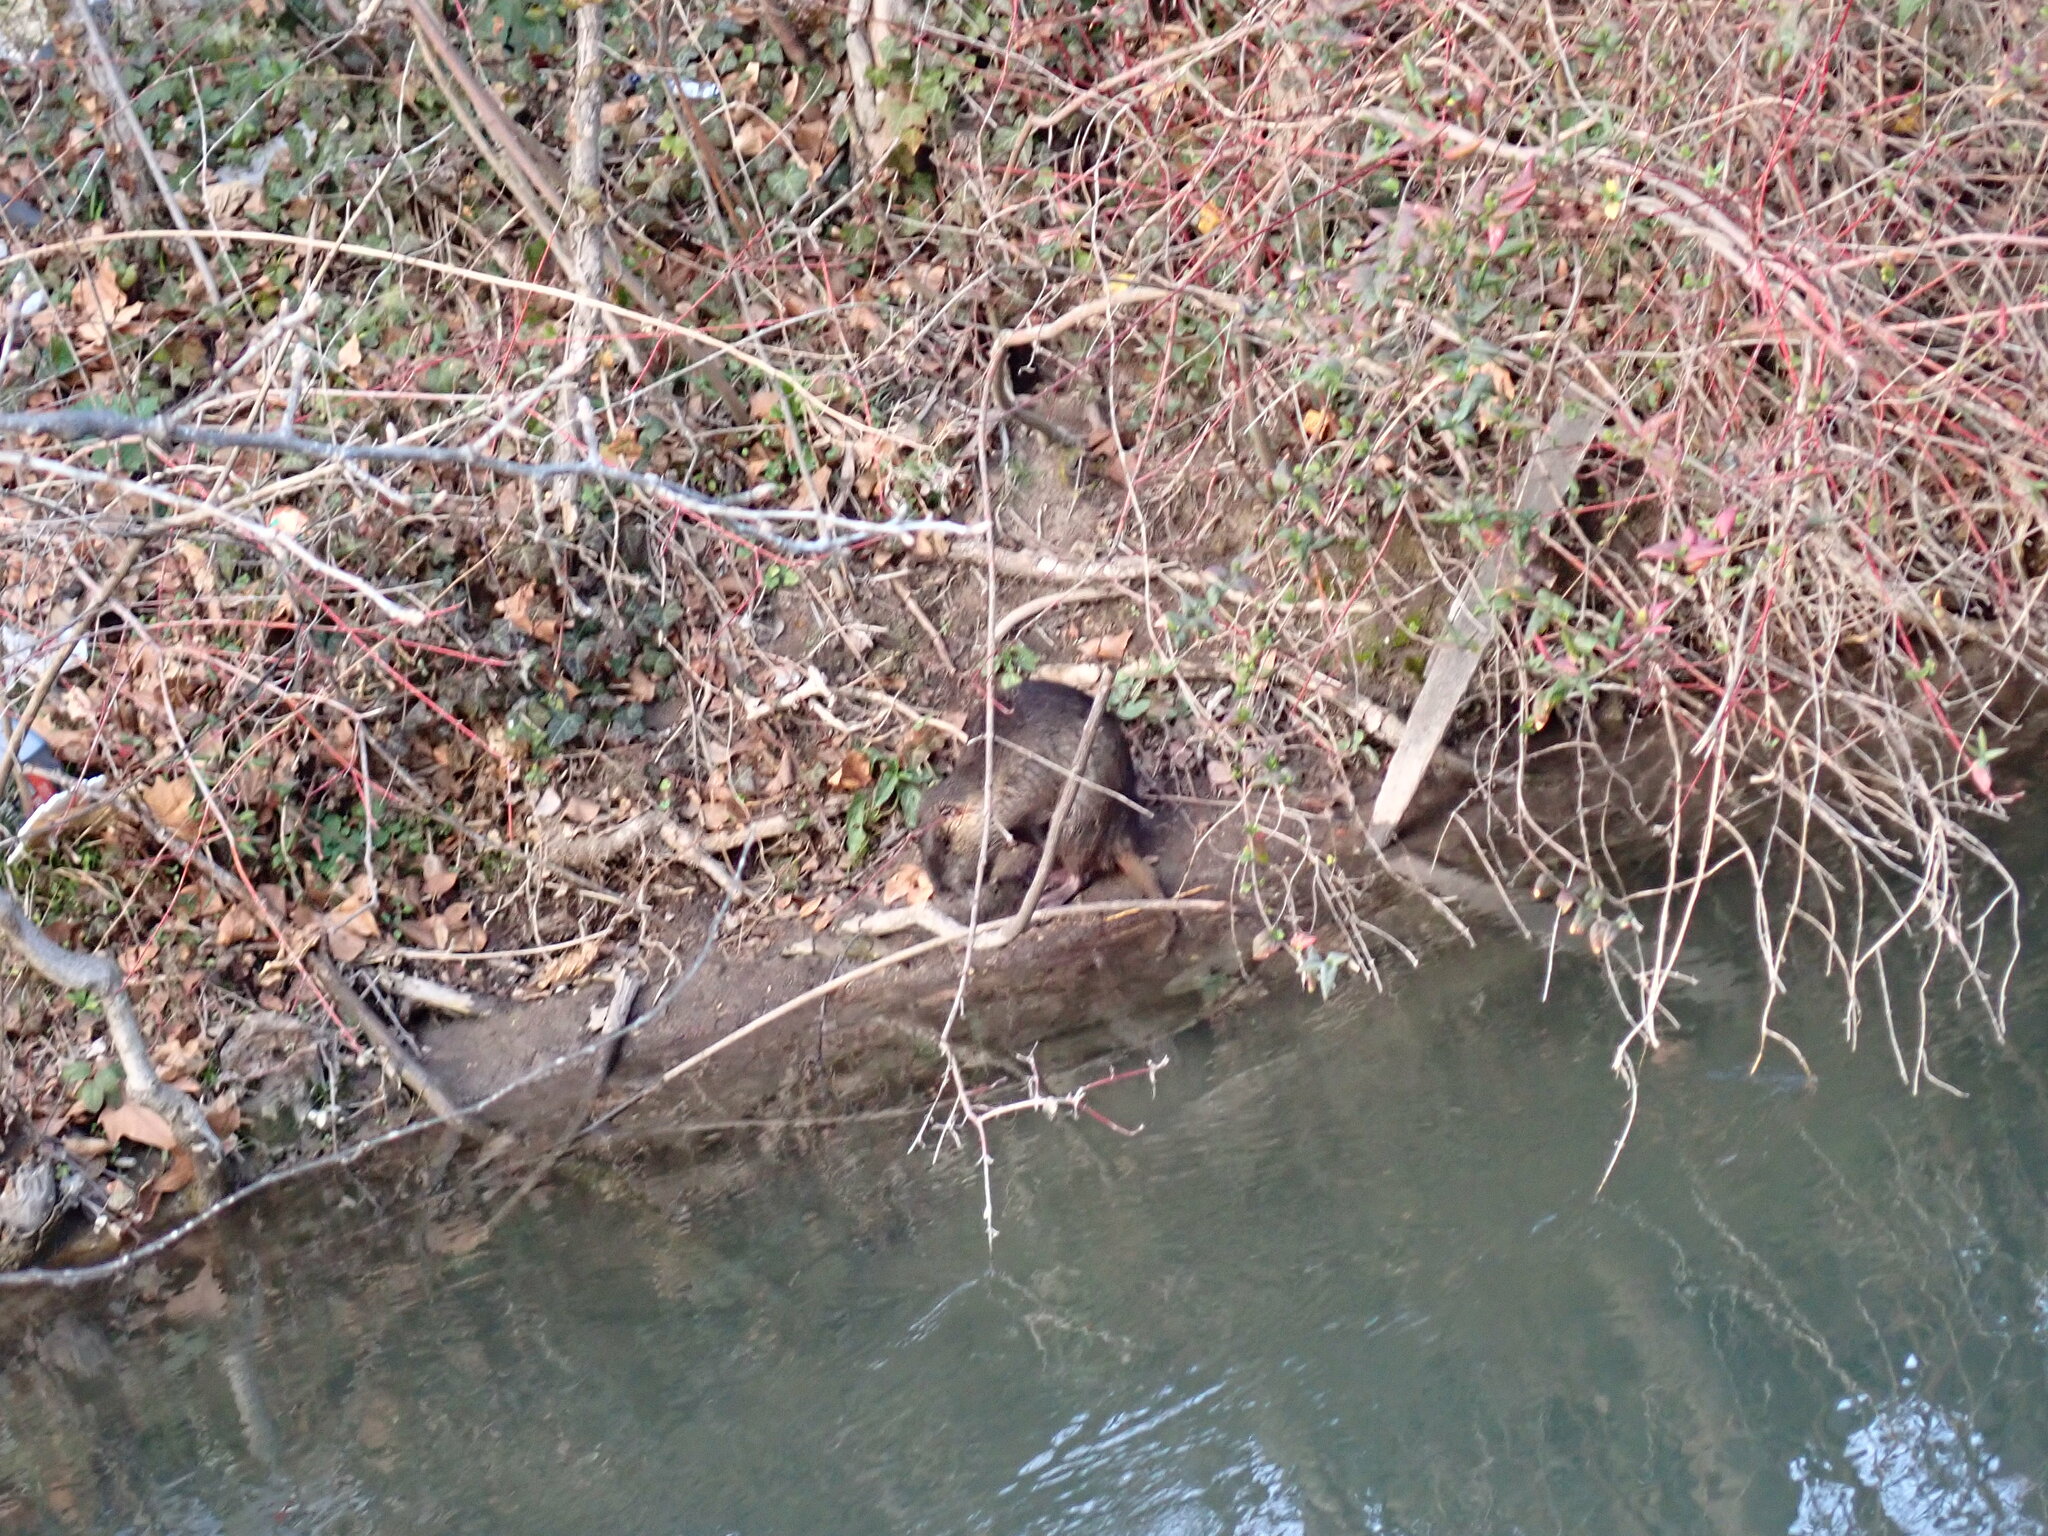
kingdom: Animalia
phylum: Chordata
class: Mammalia
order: Rodentia
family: Myocastoridae
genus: Myocastor
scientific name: Myocastor coypus
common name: Coypu
